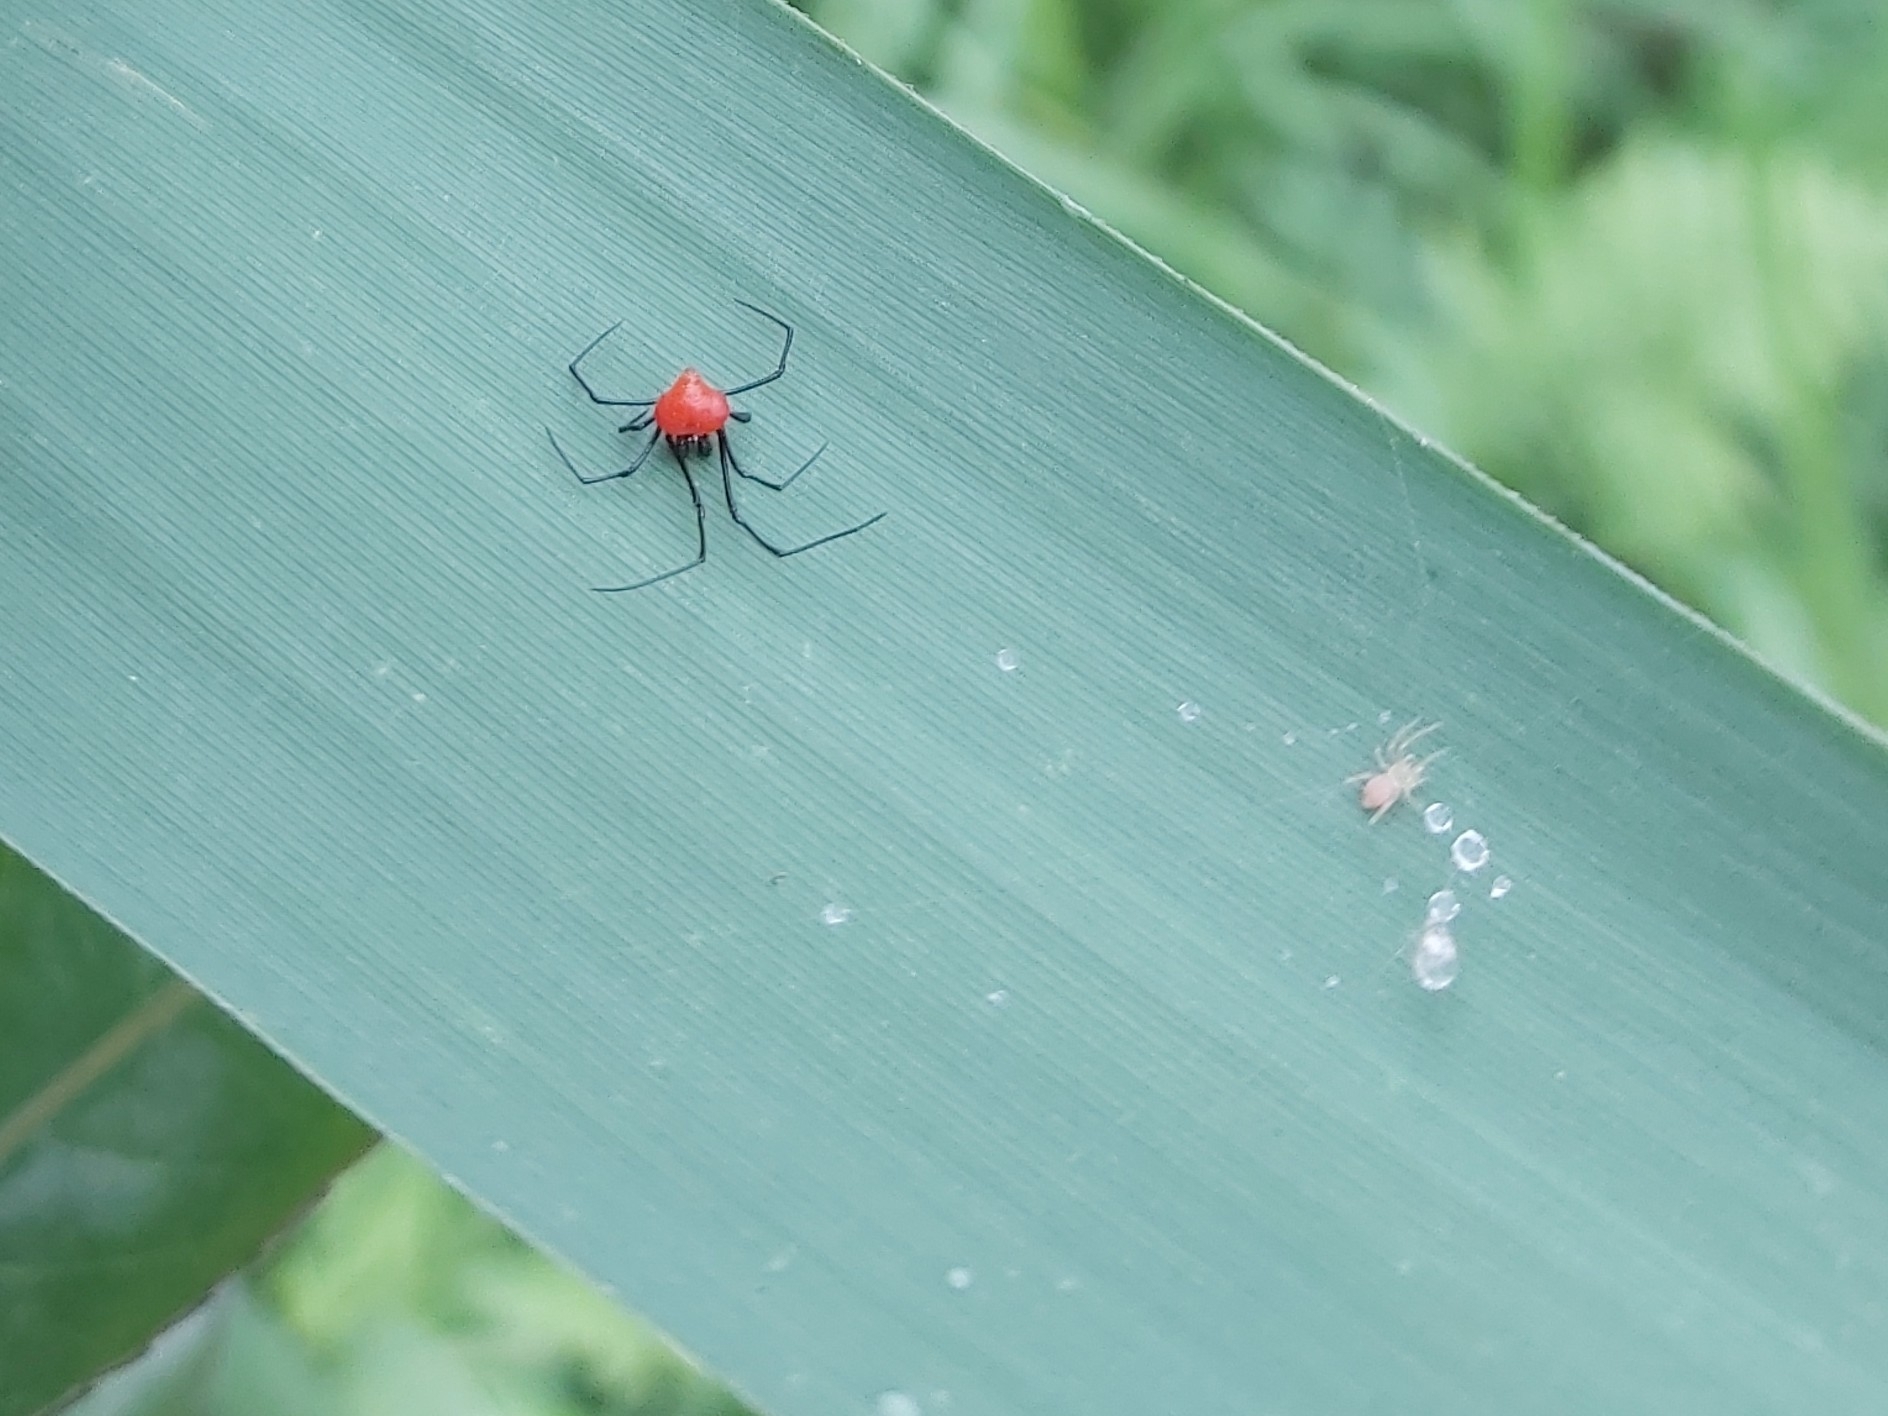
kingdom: Animalia
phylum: Arthropoda
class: Arachnida
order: Araneae
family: Theridiidae
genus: Chrysso
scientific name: Chrysso angula
